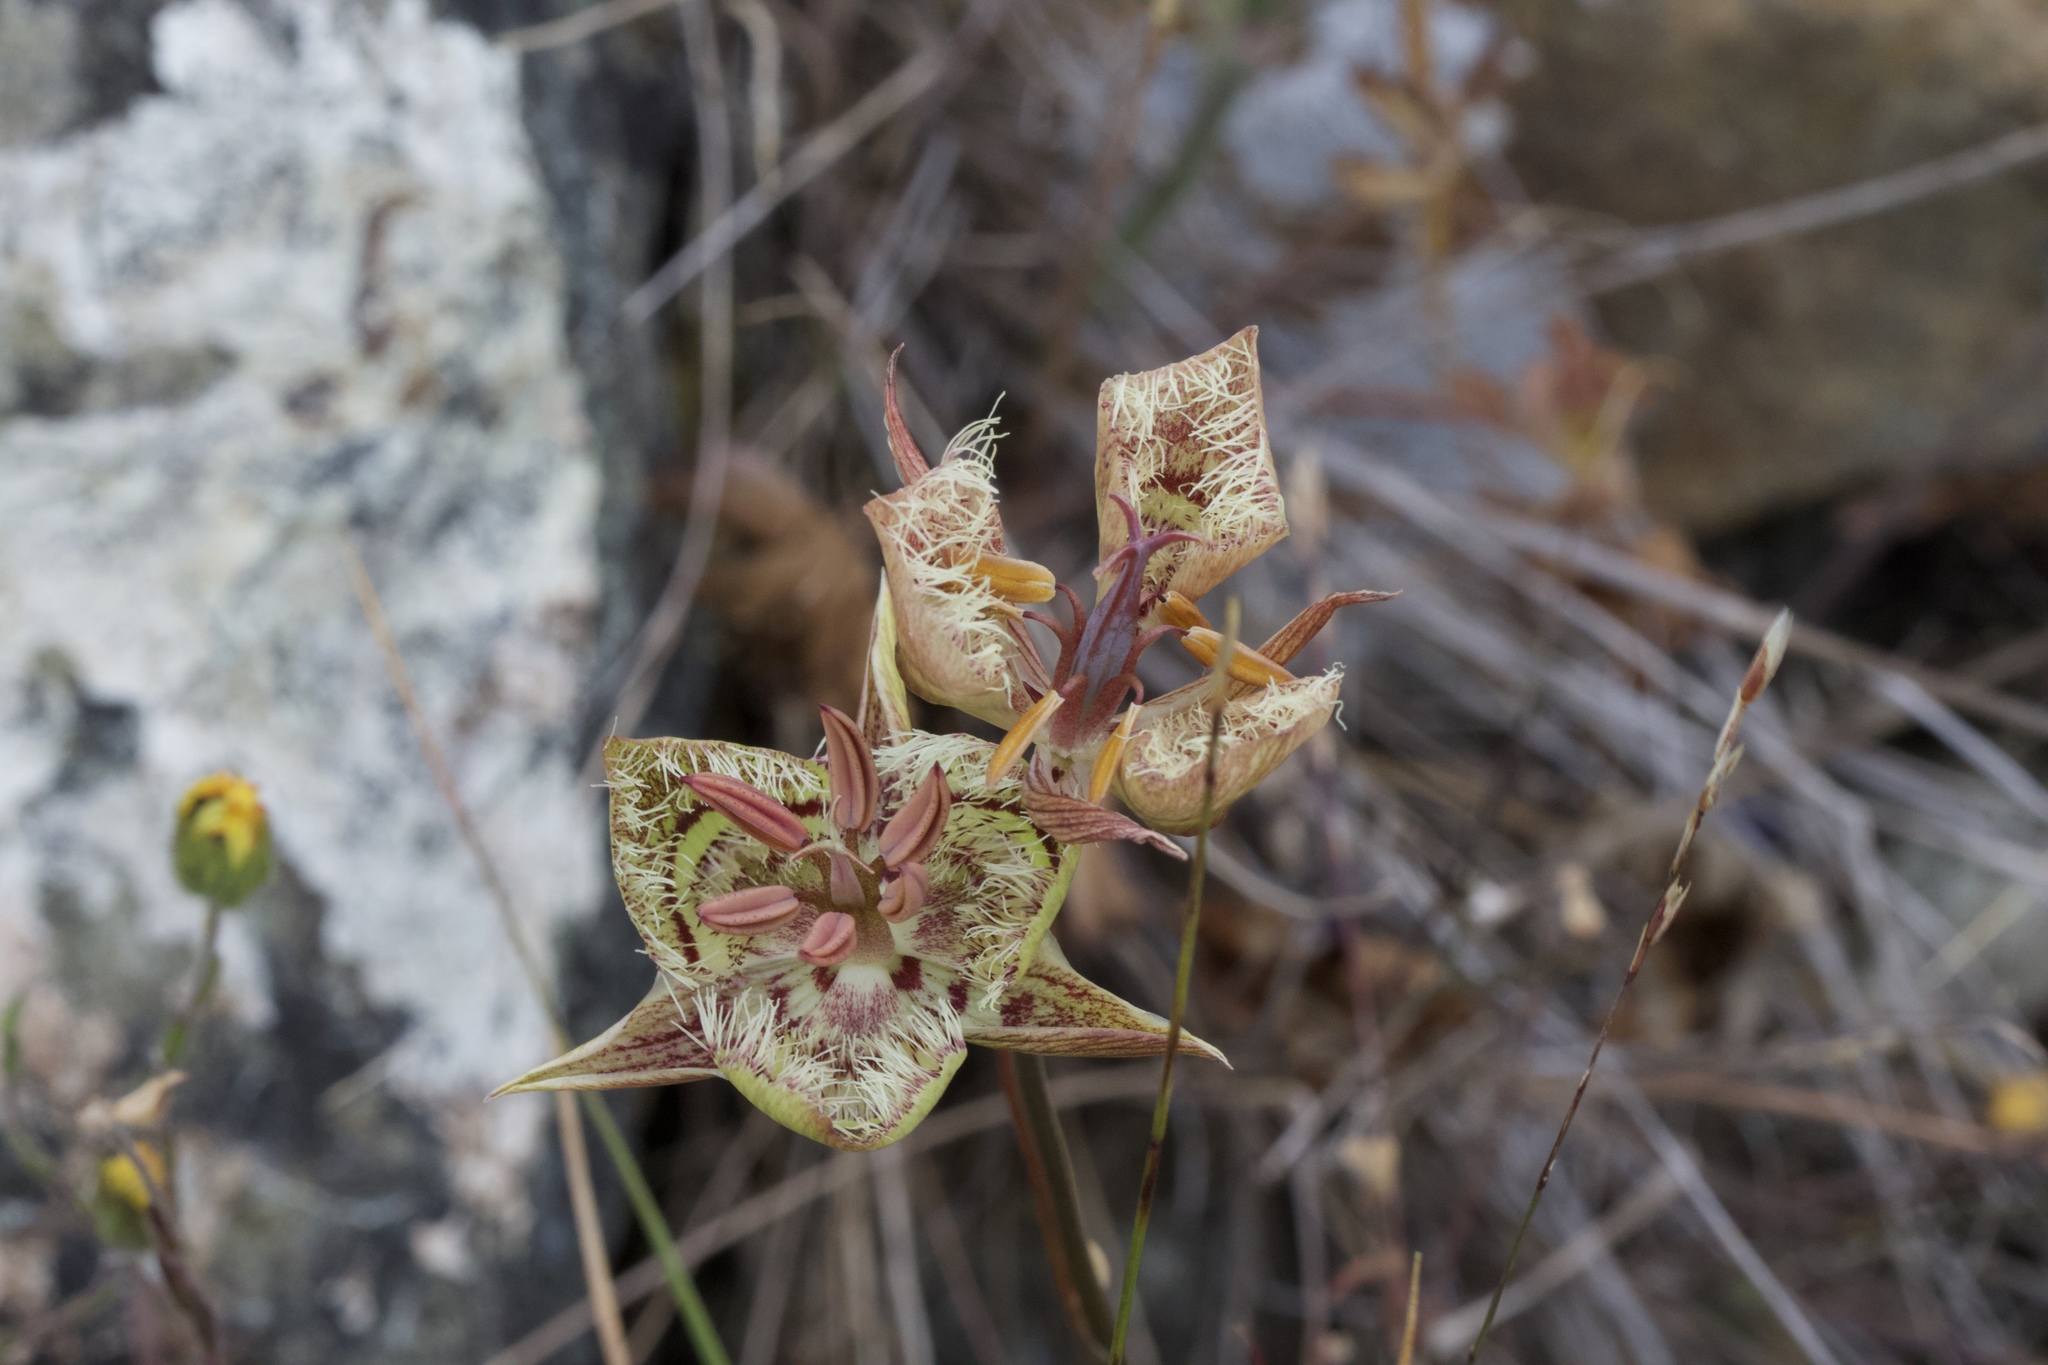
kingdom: Plantae
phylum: Tracheophyta
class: Liliopsida
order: Liliales
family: Liliaceae
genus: Calochortus
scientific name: Calochortus tiburonensis
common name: Tiburon mariposa-lily
